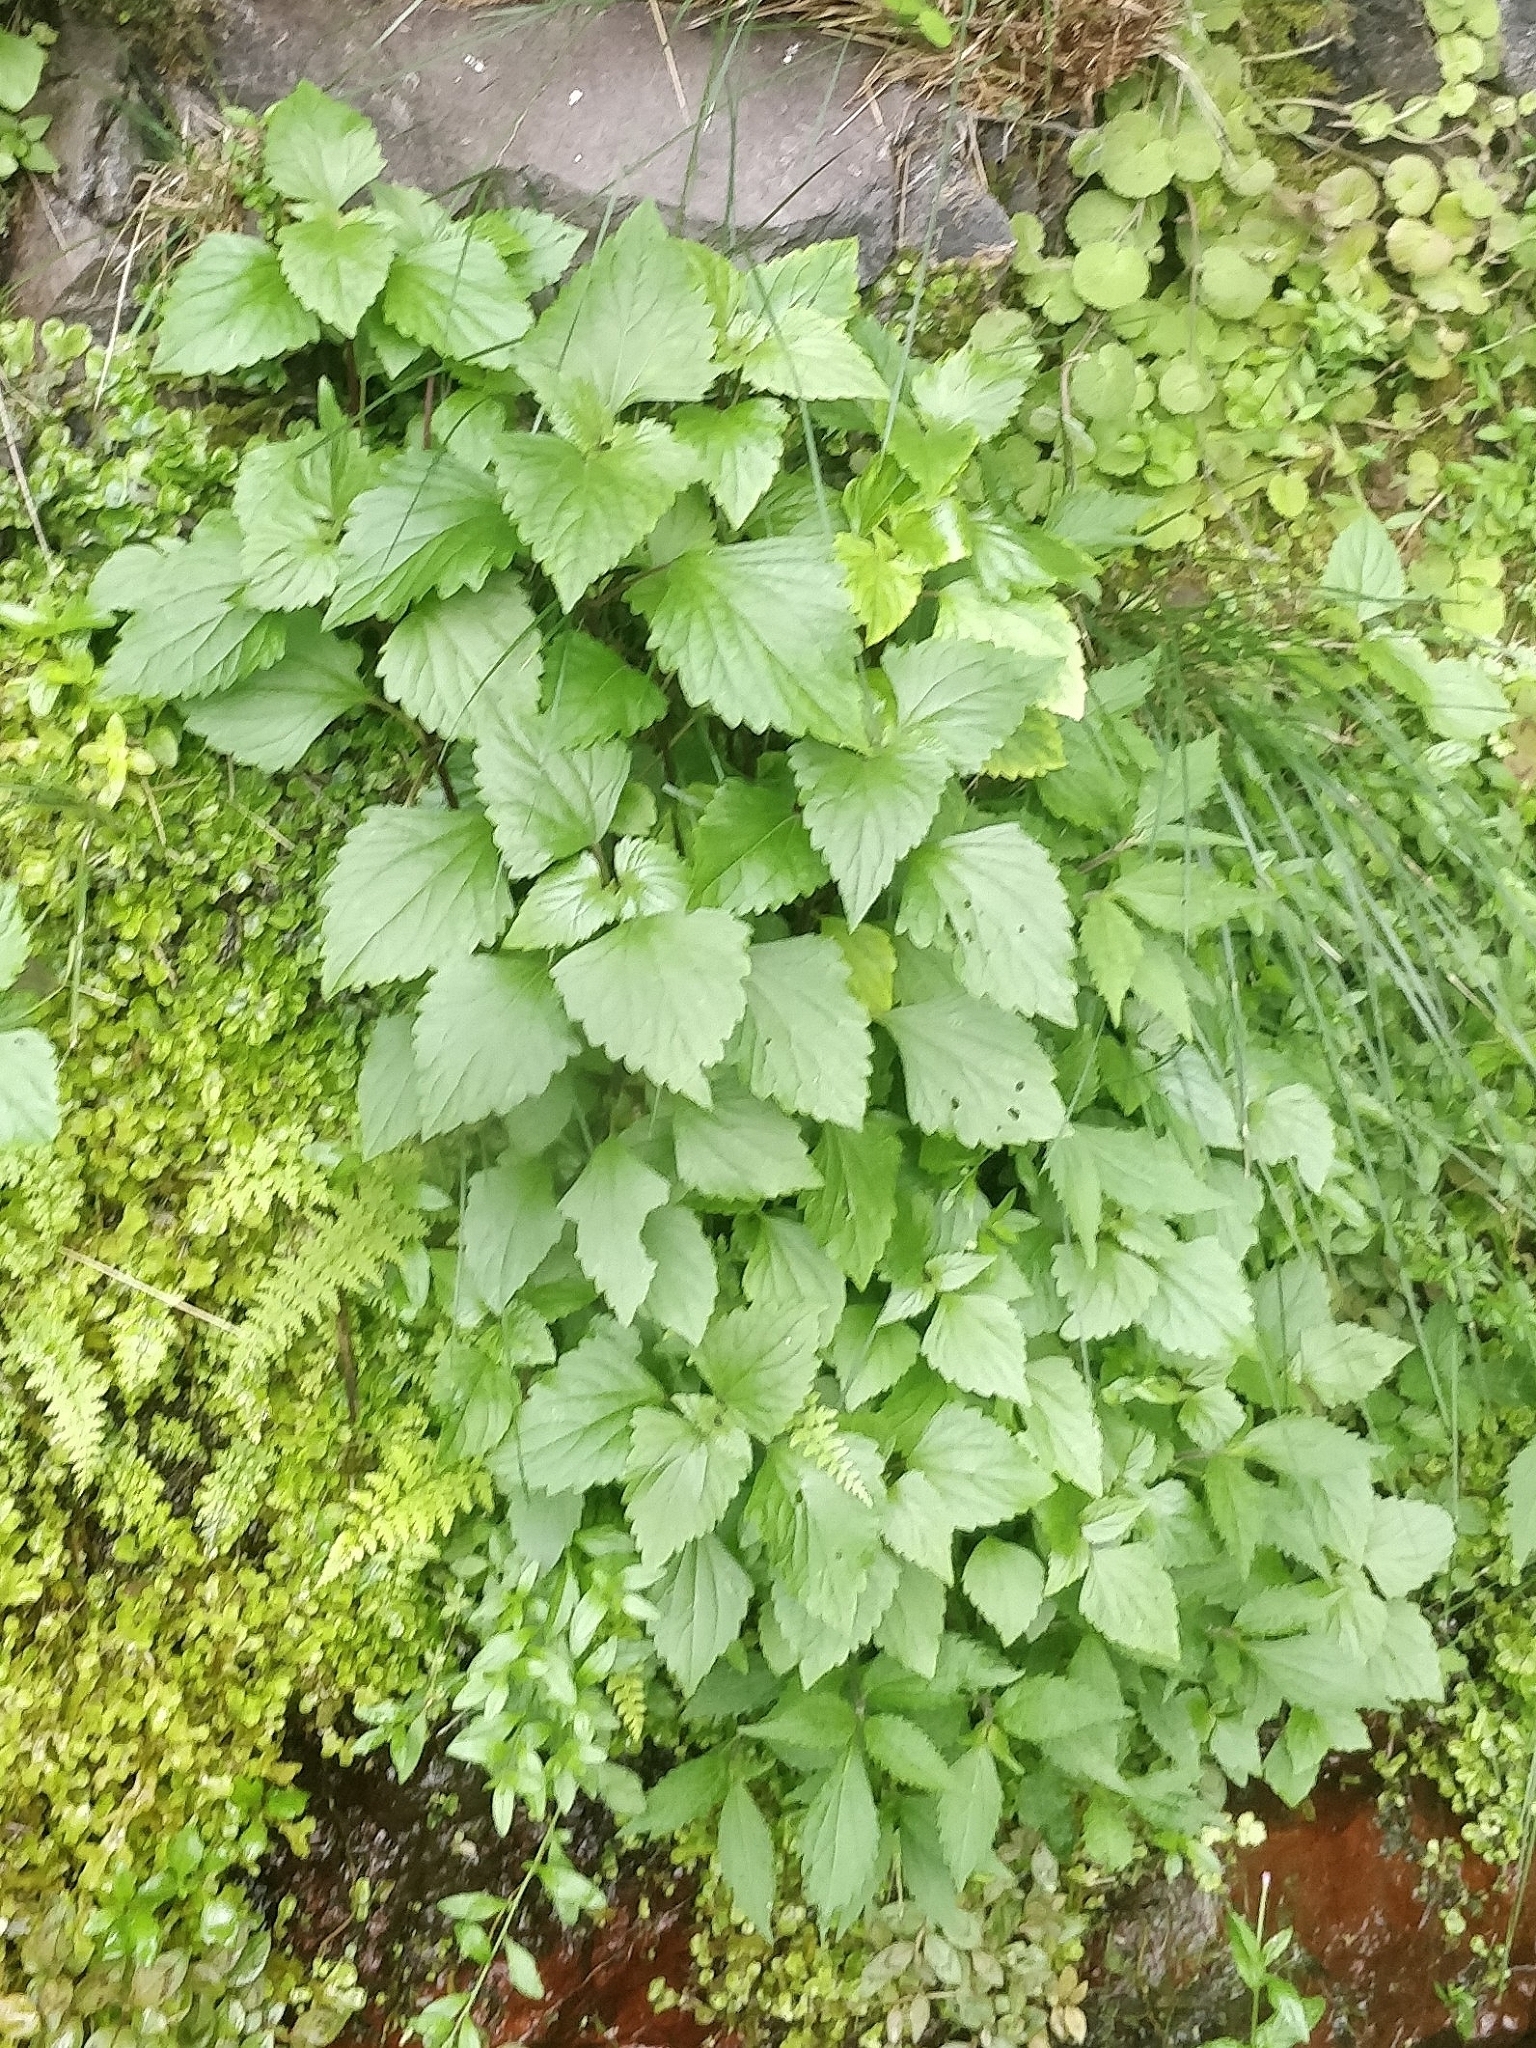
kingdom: Plantae
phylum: Tracheophyta
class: Magnoliopsida
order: Asterales
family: Asteraceae
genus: Ageratina
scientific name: Ageratina adenophora
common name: Sticky snakeroot
